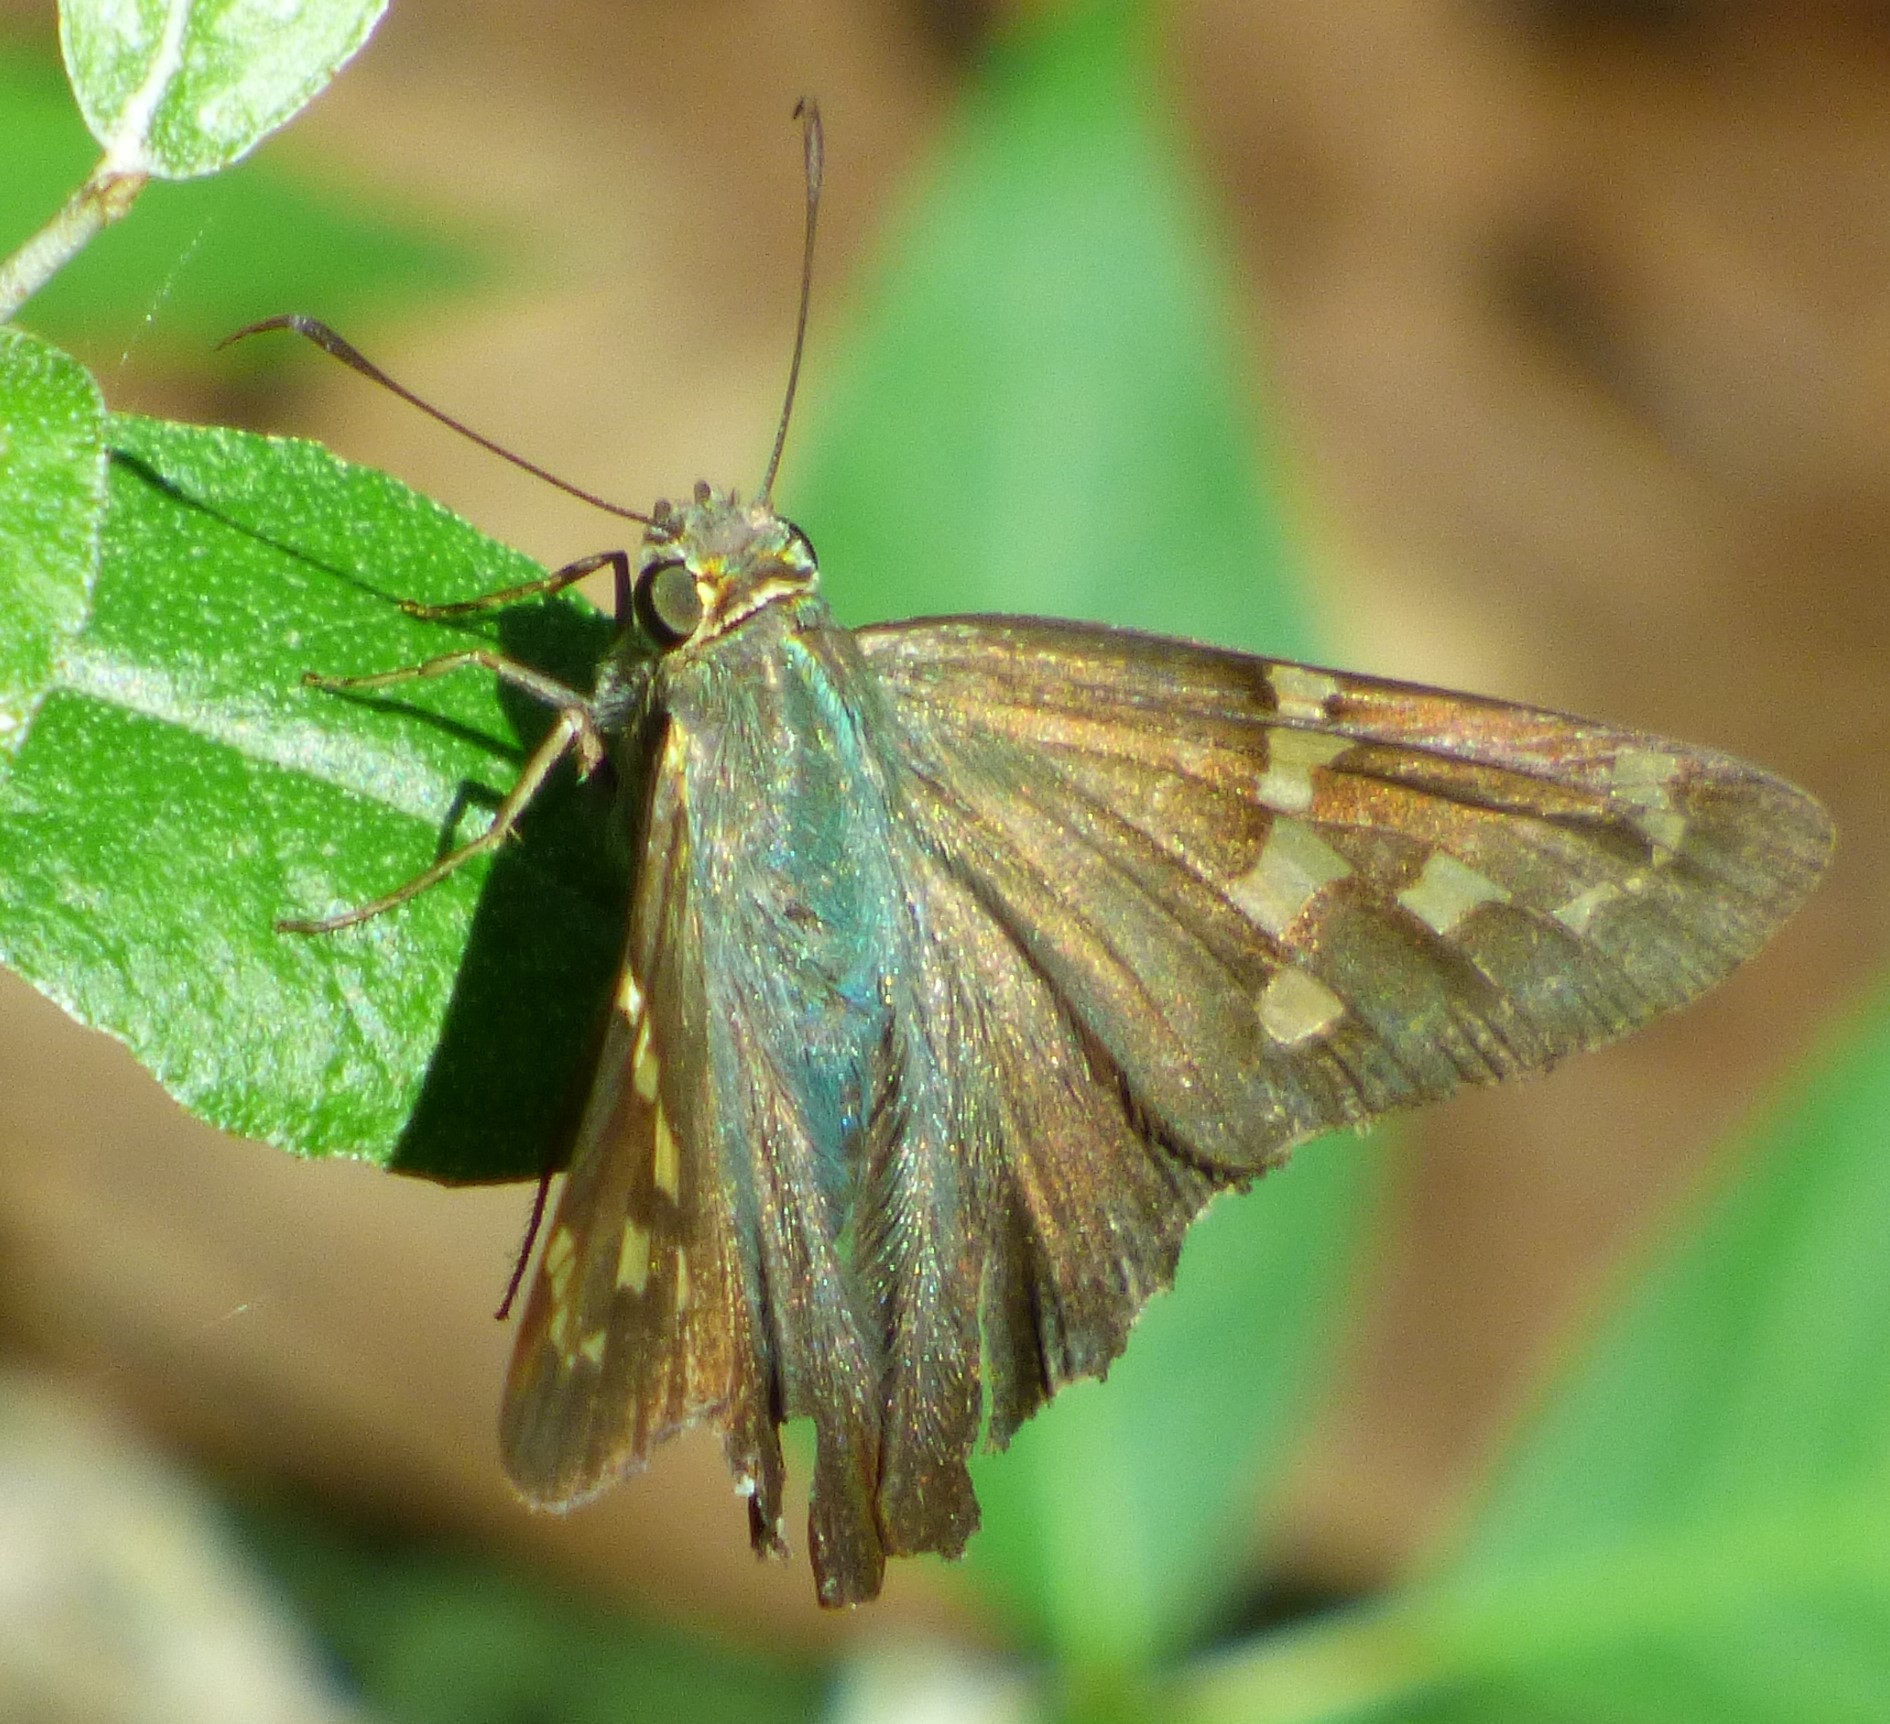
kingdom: Animalia
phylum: Arthropoda
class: Insecta
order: Lepidoptera
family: Hesperiidae
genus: Urbanus
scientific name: Urbanus proteus
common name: Long-tailed skipper
